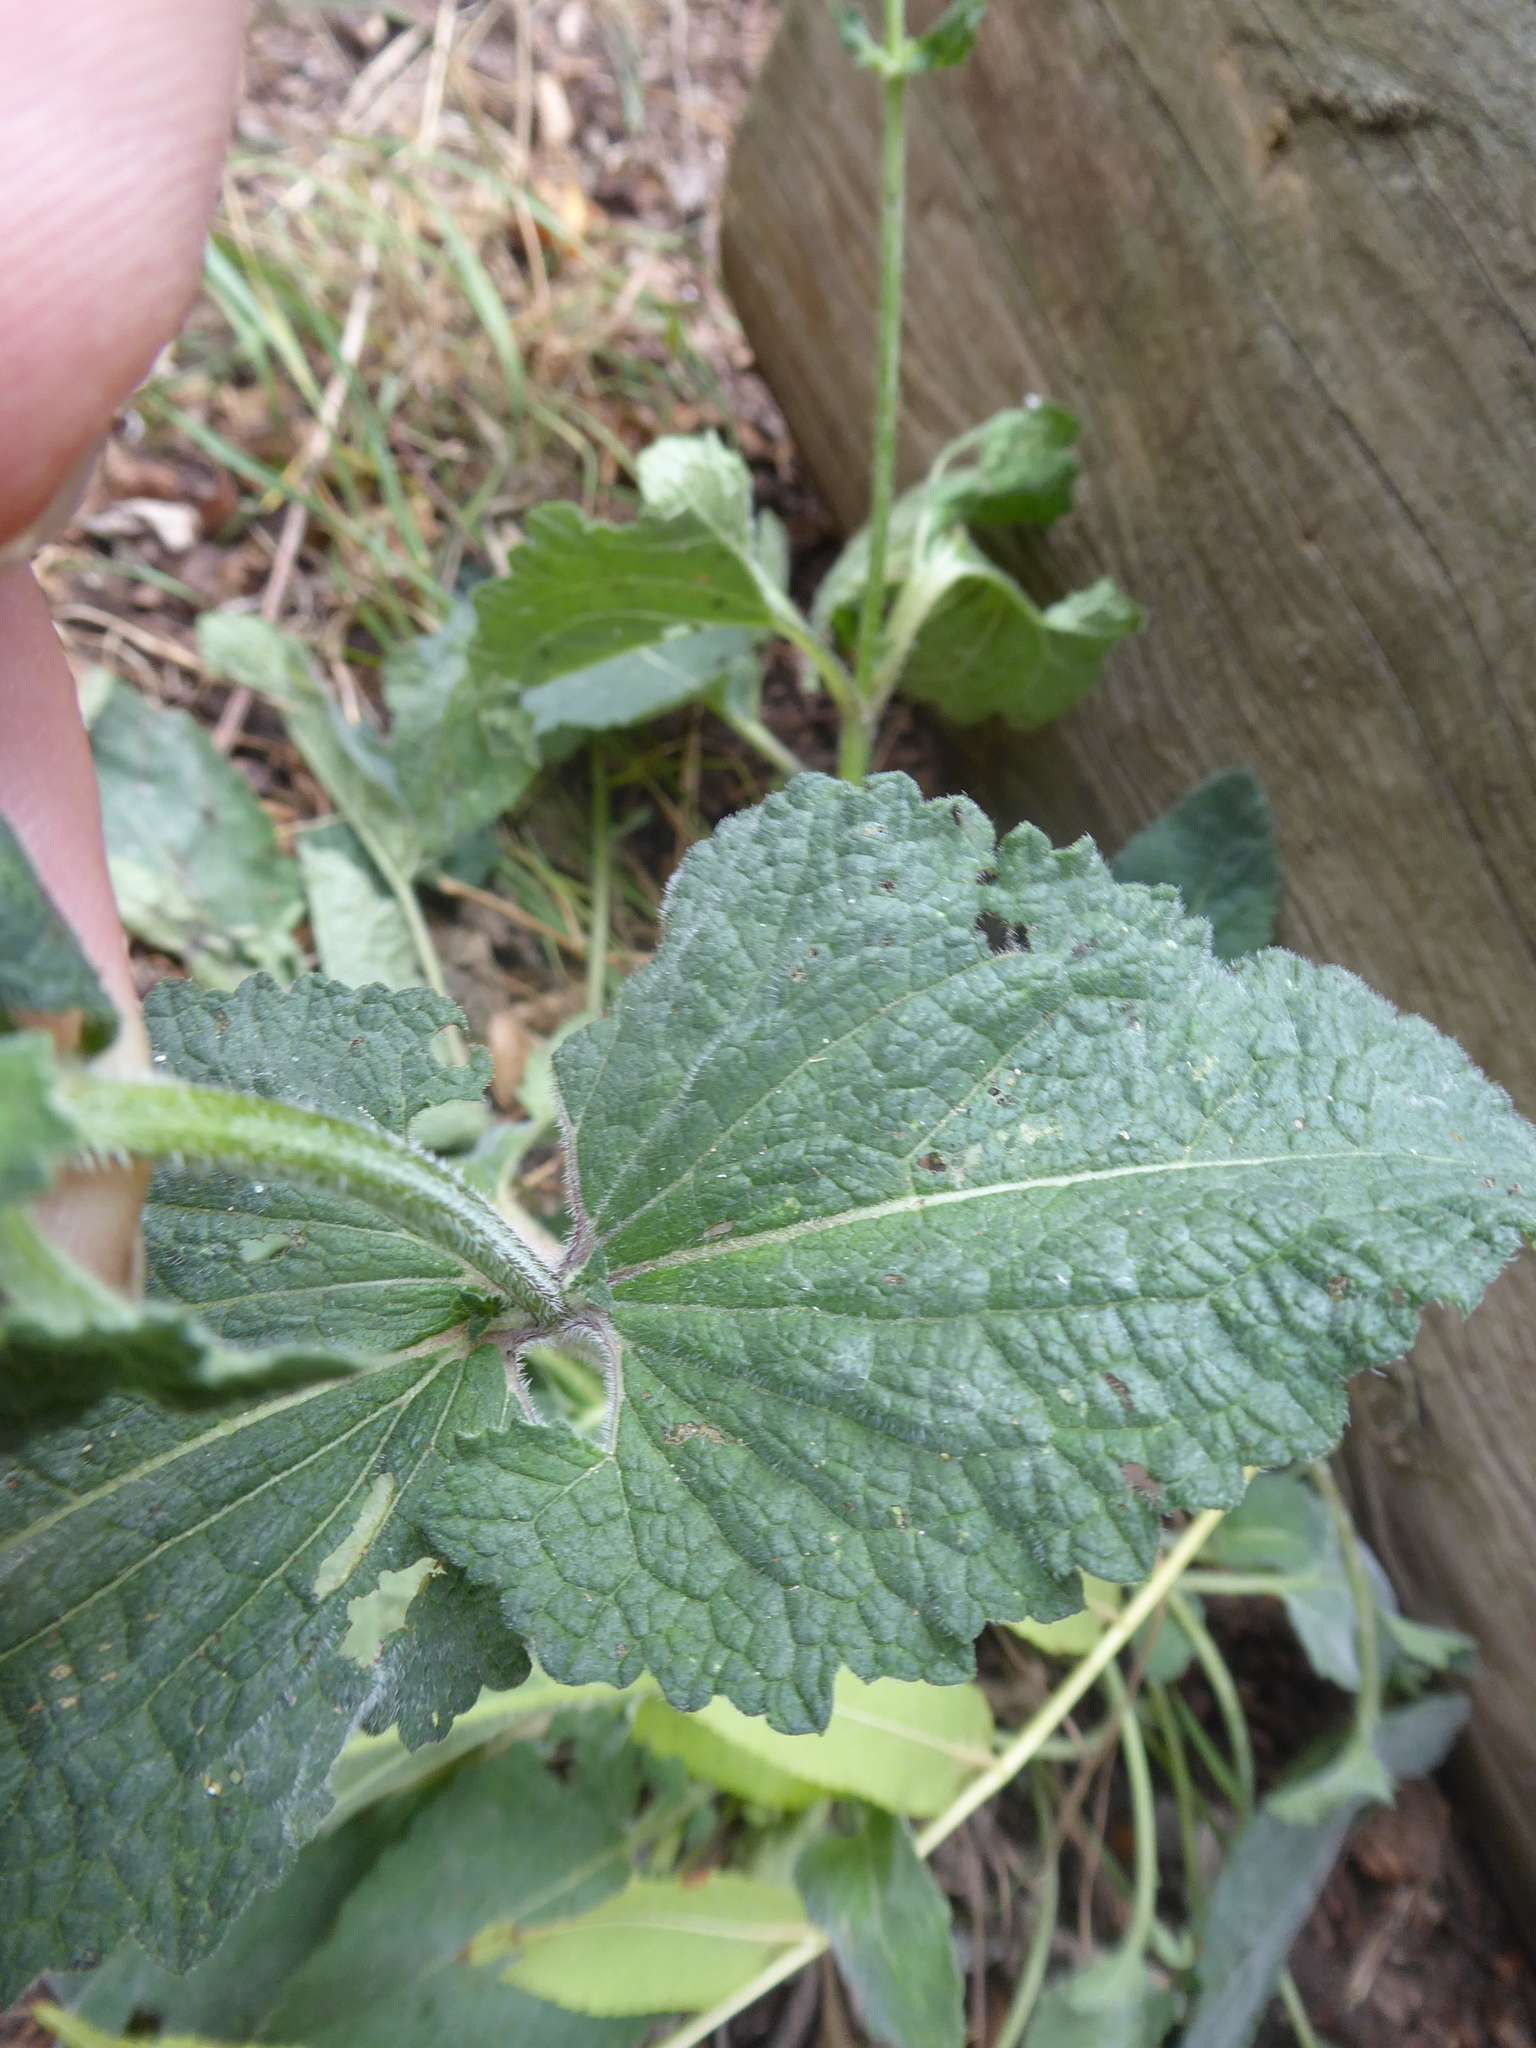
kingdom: Plantae
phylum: Tracheophyta
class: Magnoliopsida
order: Lamiales
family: Lamiaceae
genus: Salvia
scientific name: Salvia verticillata
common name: Whorled clary
